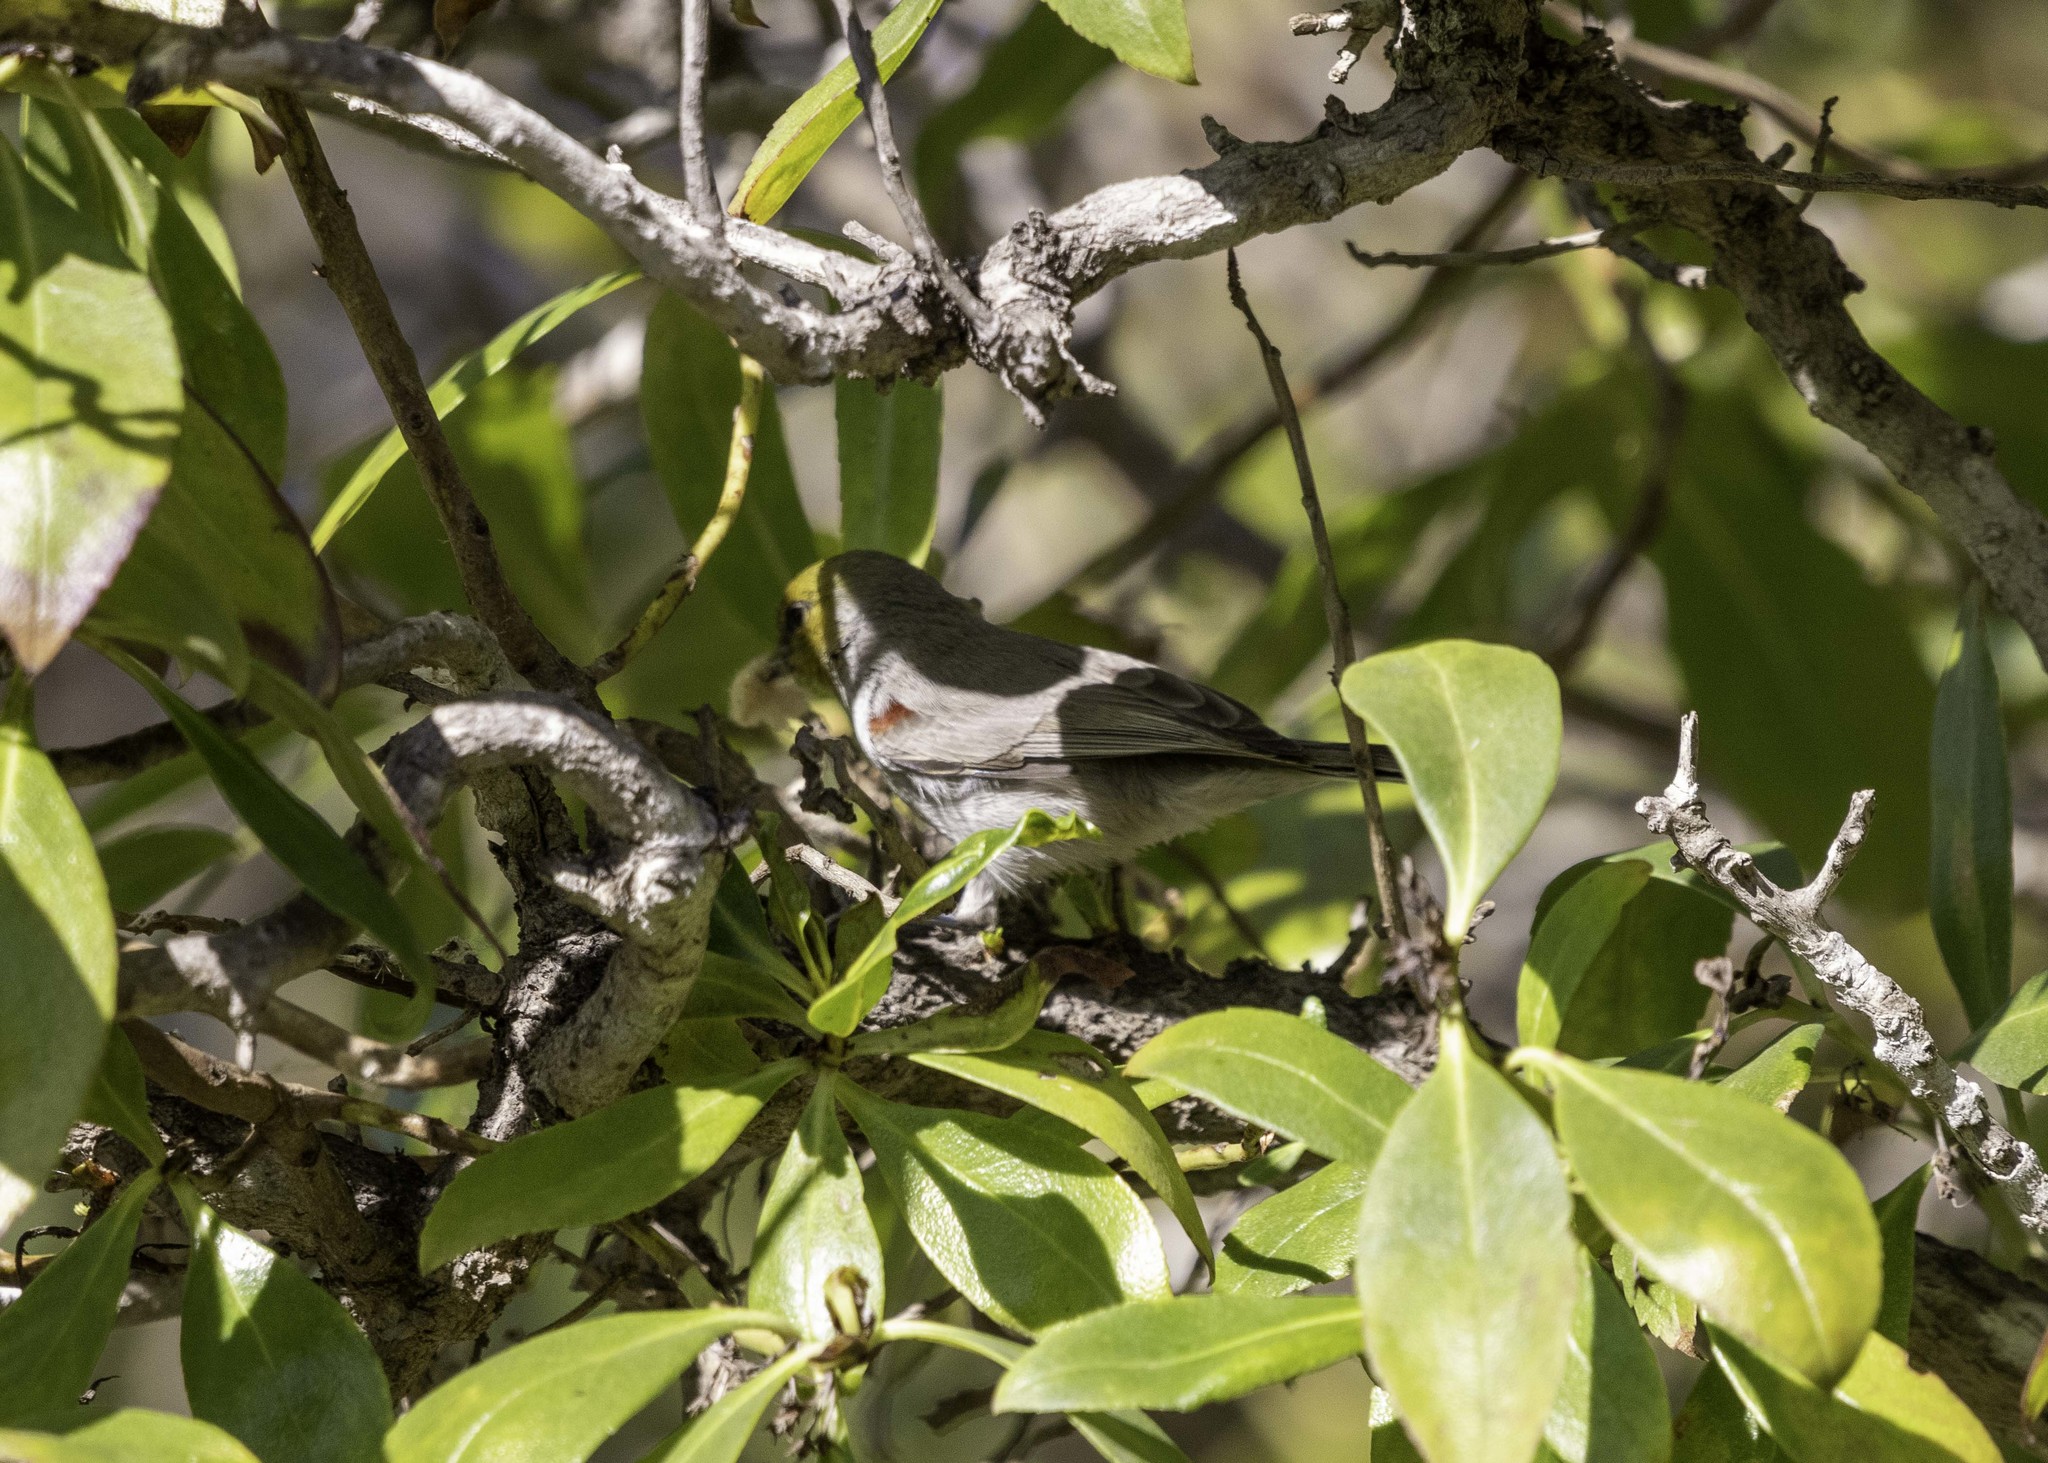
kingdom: Animalia
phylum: Chordata
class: Aves
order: Passeriformes
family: Remizidae
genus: Auriparus
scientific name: Auriparus flaviceps
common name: Verdin
